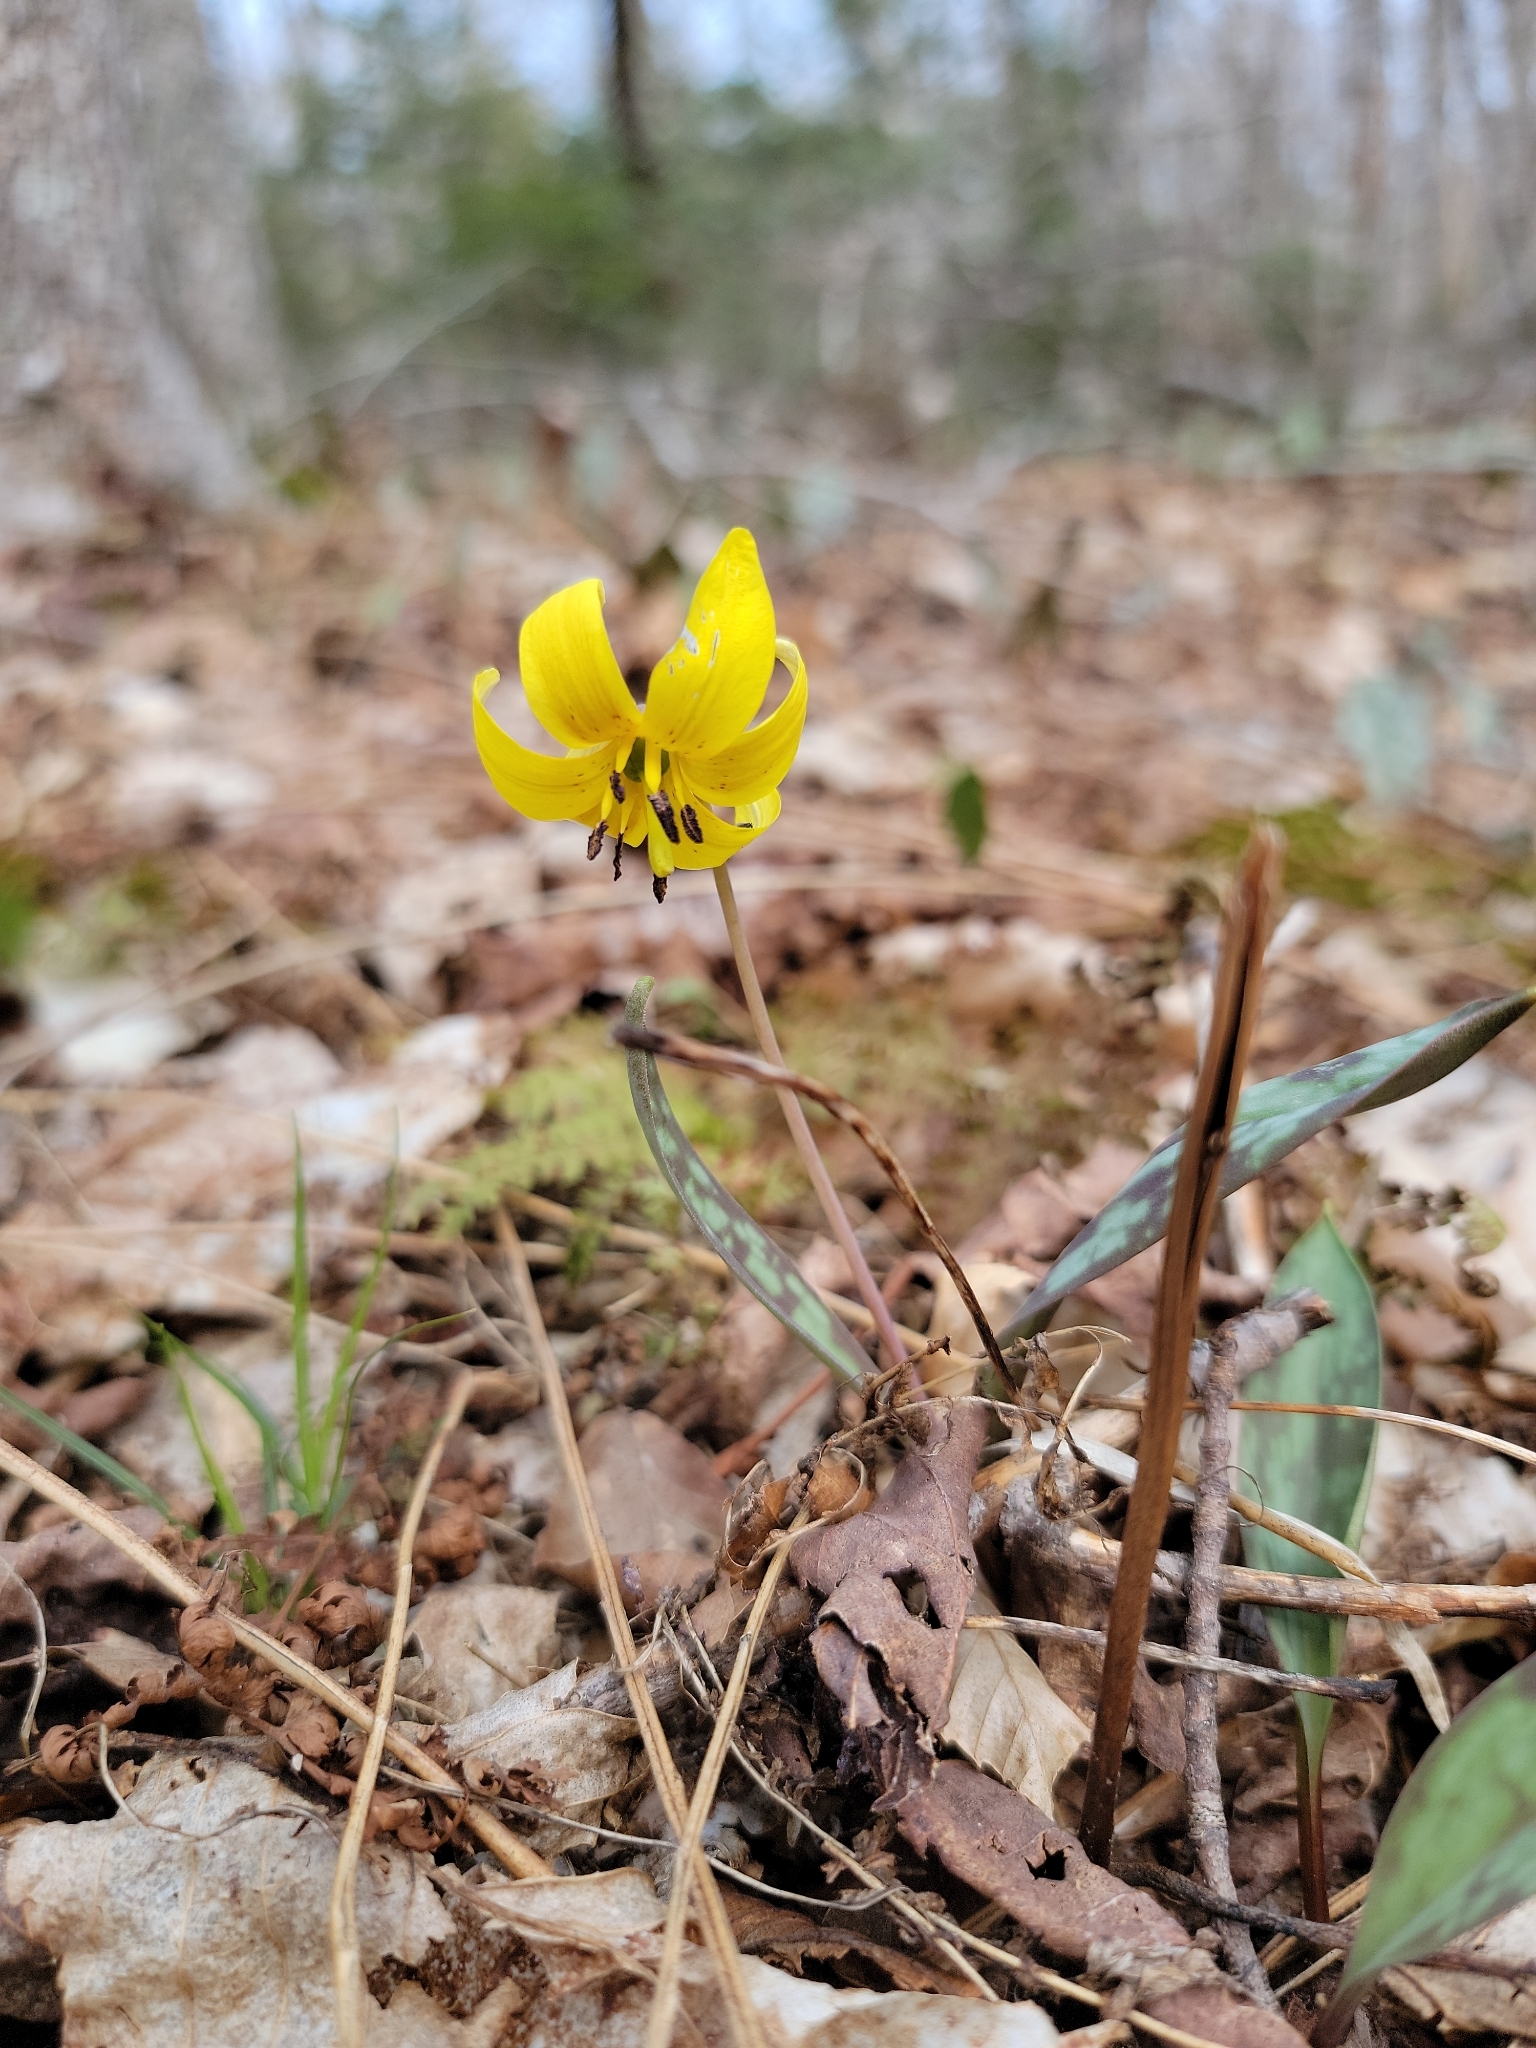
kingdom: Plantae
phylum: Tracheophyta
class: Liliopsida
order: Liliales
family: Liliaceae
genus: Erythronium
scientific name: Erythronium americanum
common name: Yellow adder's-tongue
